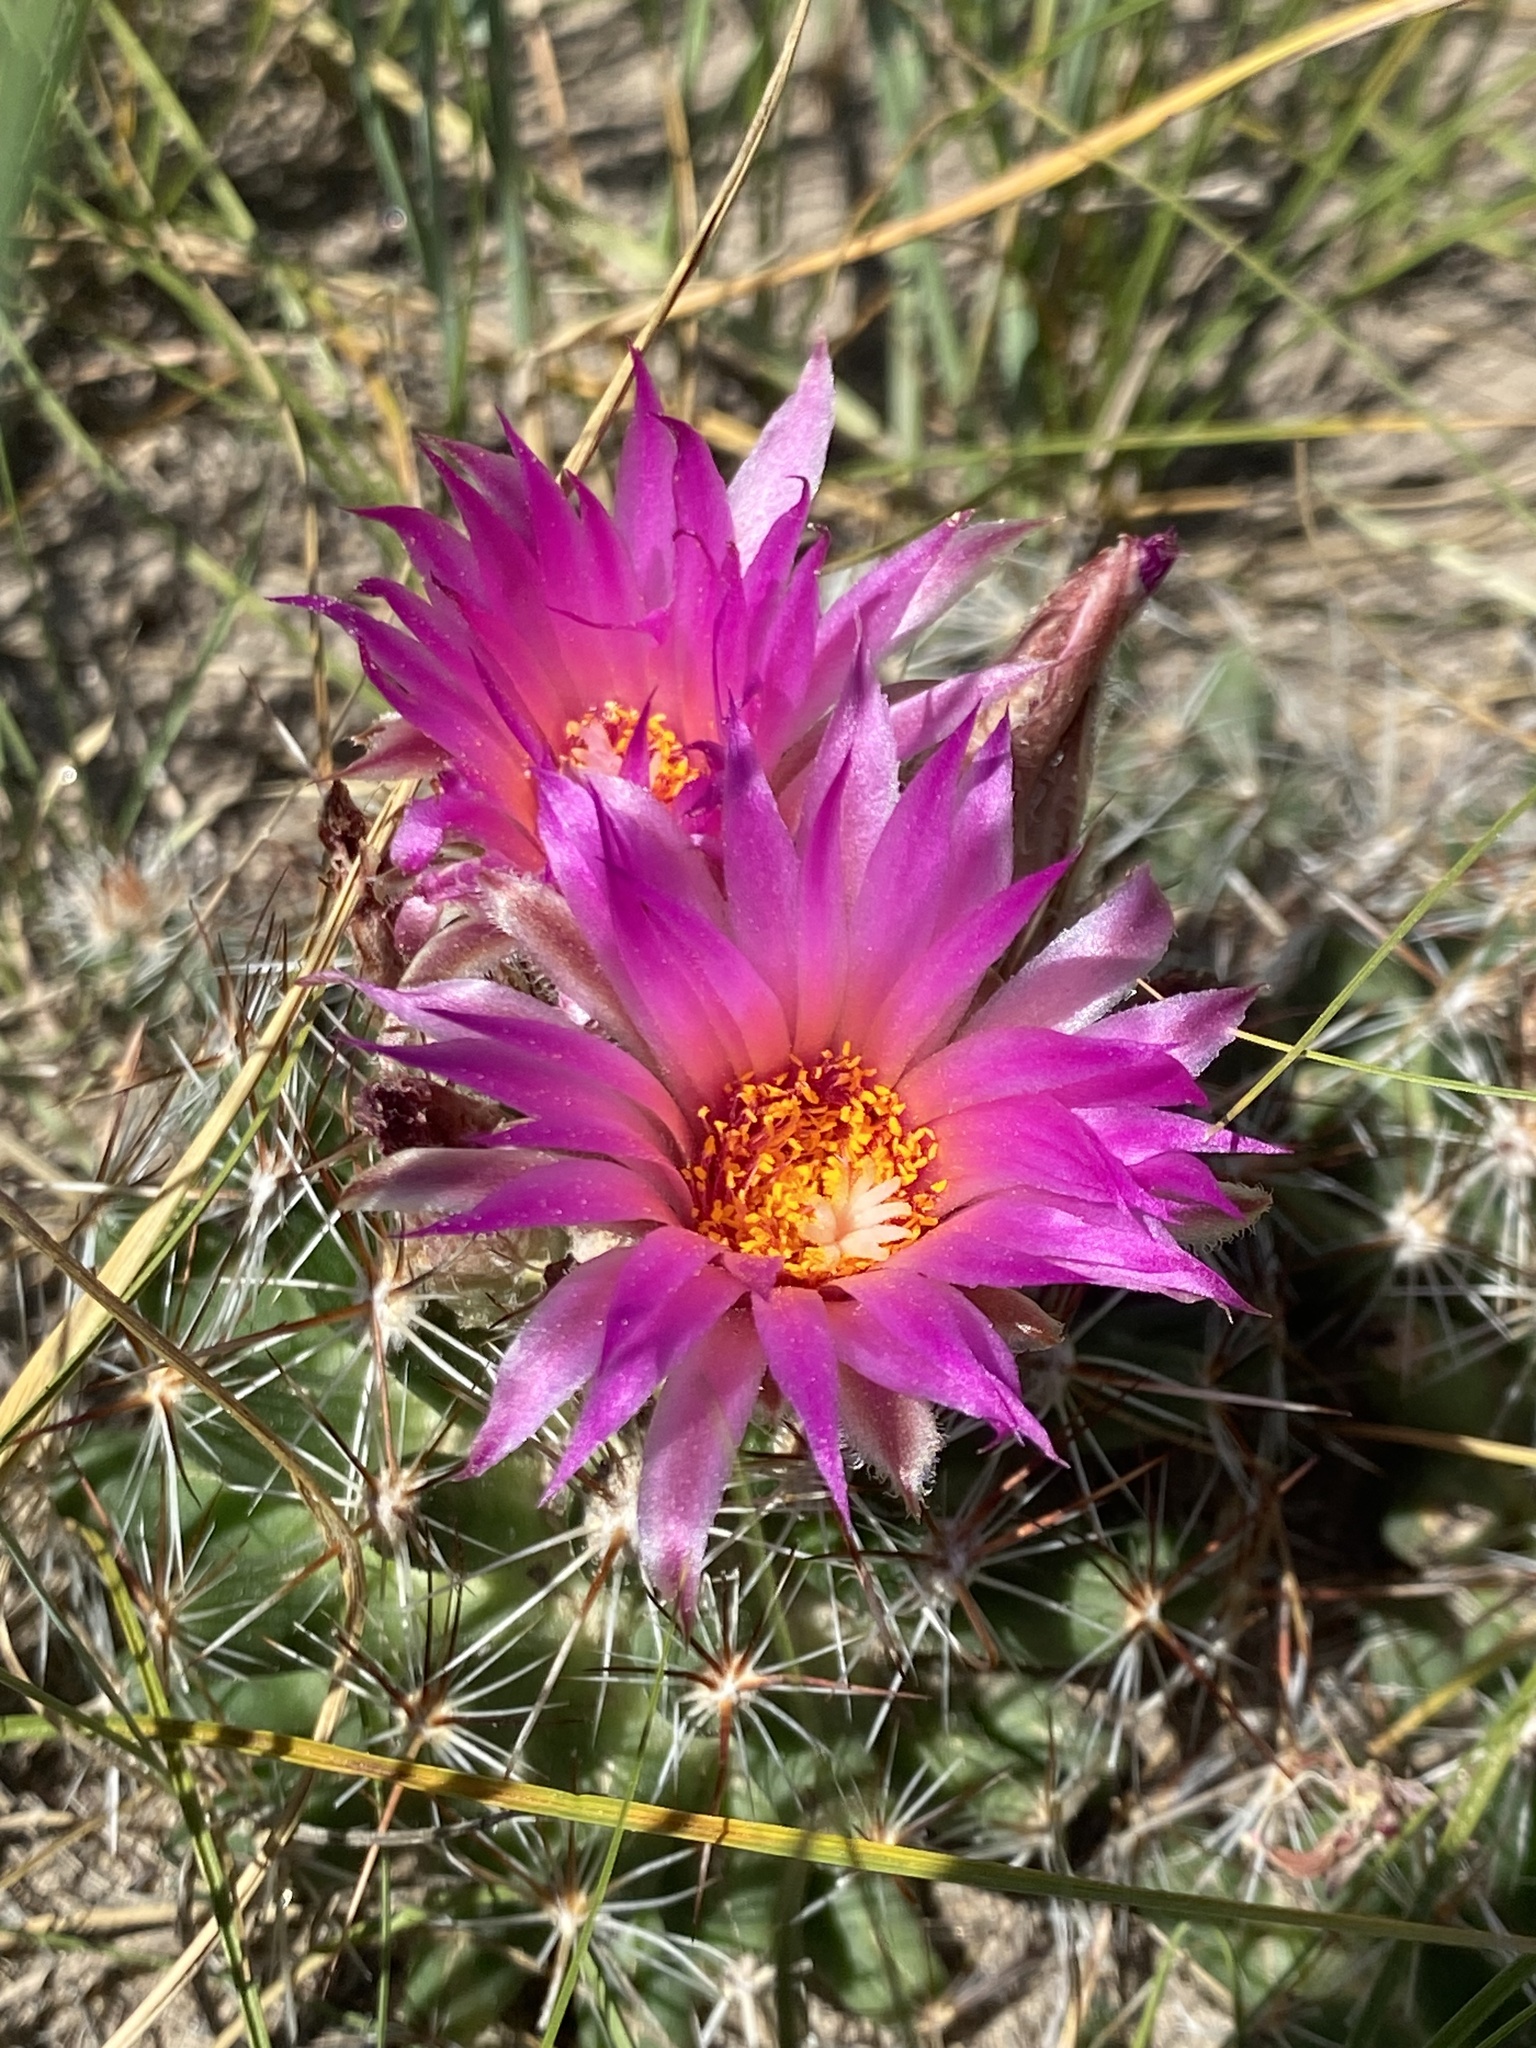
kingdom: Plantae
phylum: Tracheophyta
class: Magnoliopsida
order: Caryophyllales
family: Cactaceae
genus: Pelecyphora
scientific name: Pelecyphora vivipara
